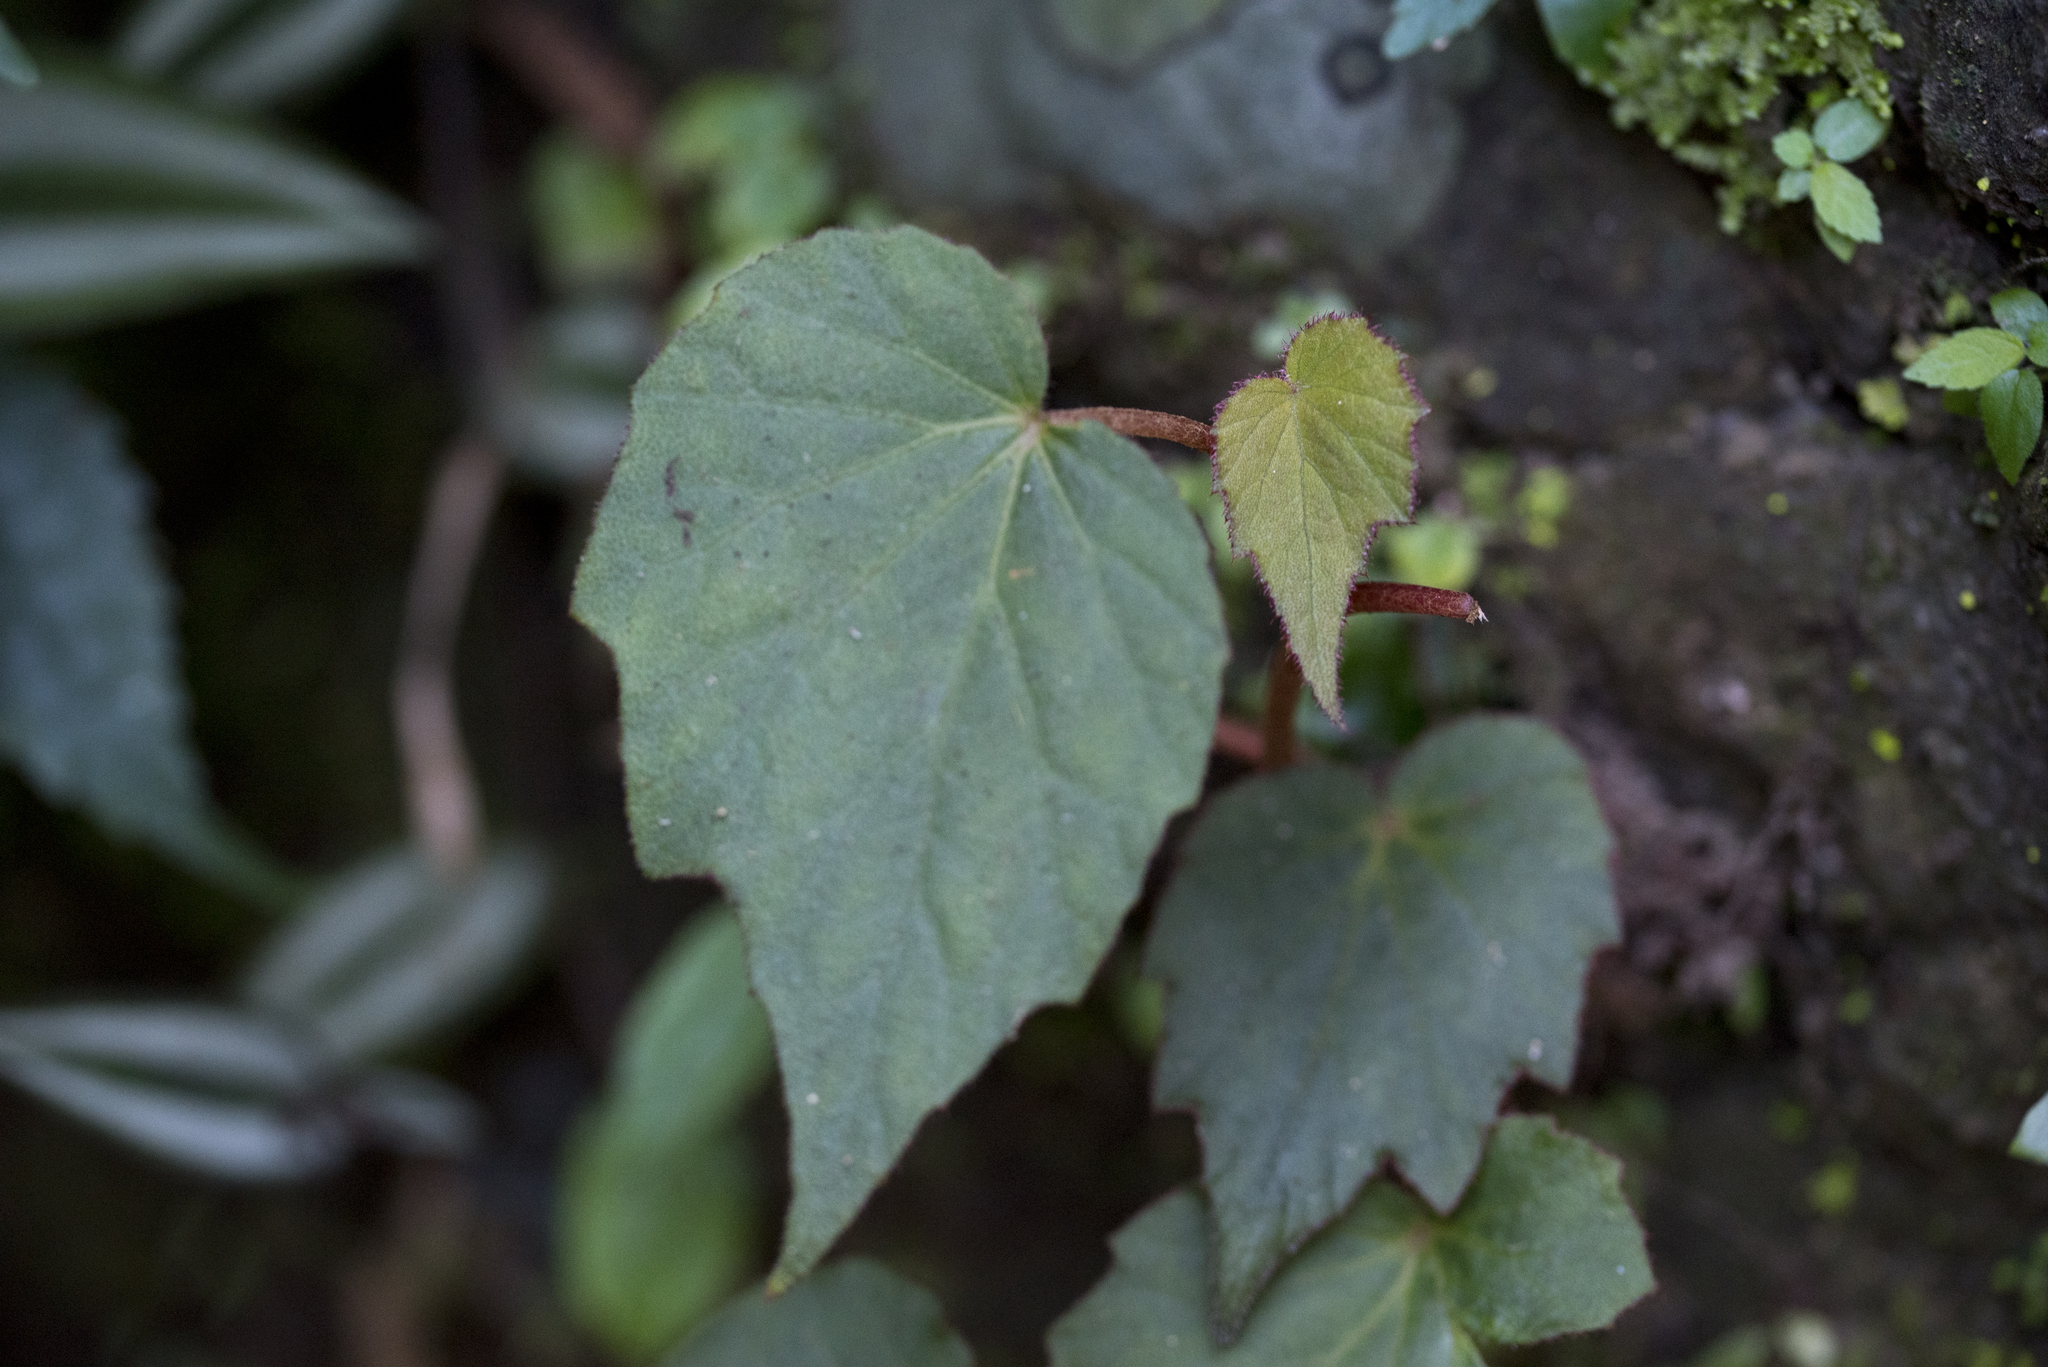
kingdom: Plantae
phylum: Tracheophyta
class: Magnoliopsida
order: Cucurbitales
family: Begoniaceae
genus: Begonia
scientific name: Begonia palmata
